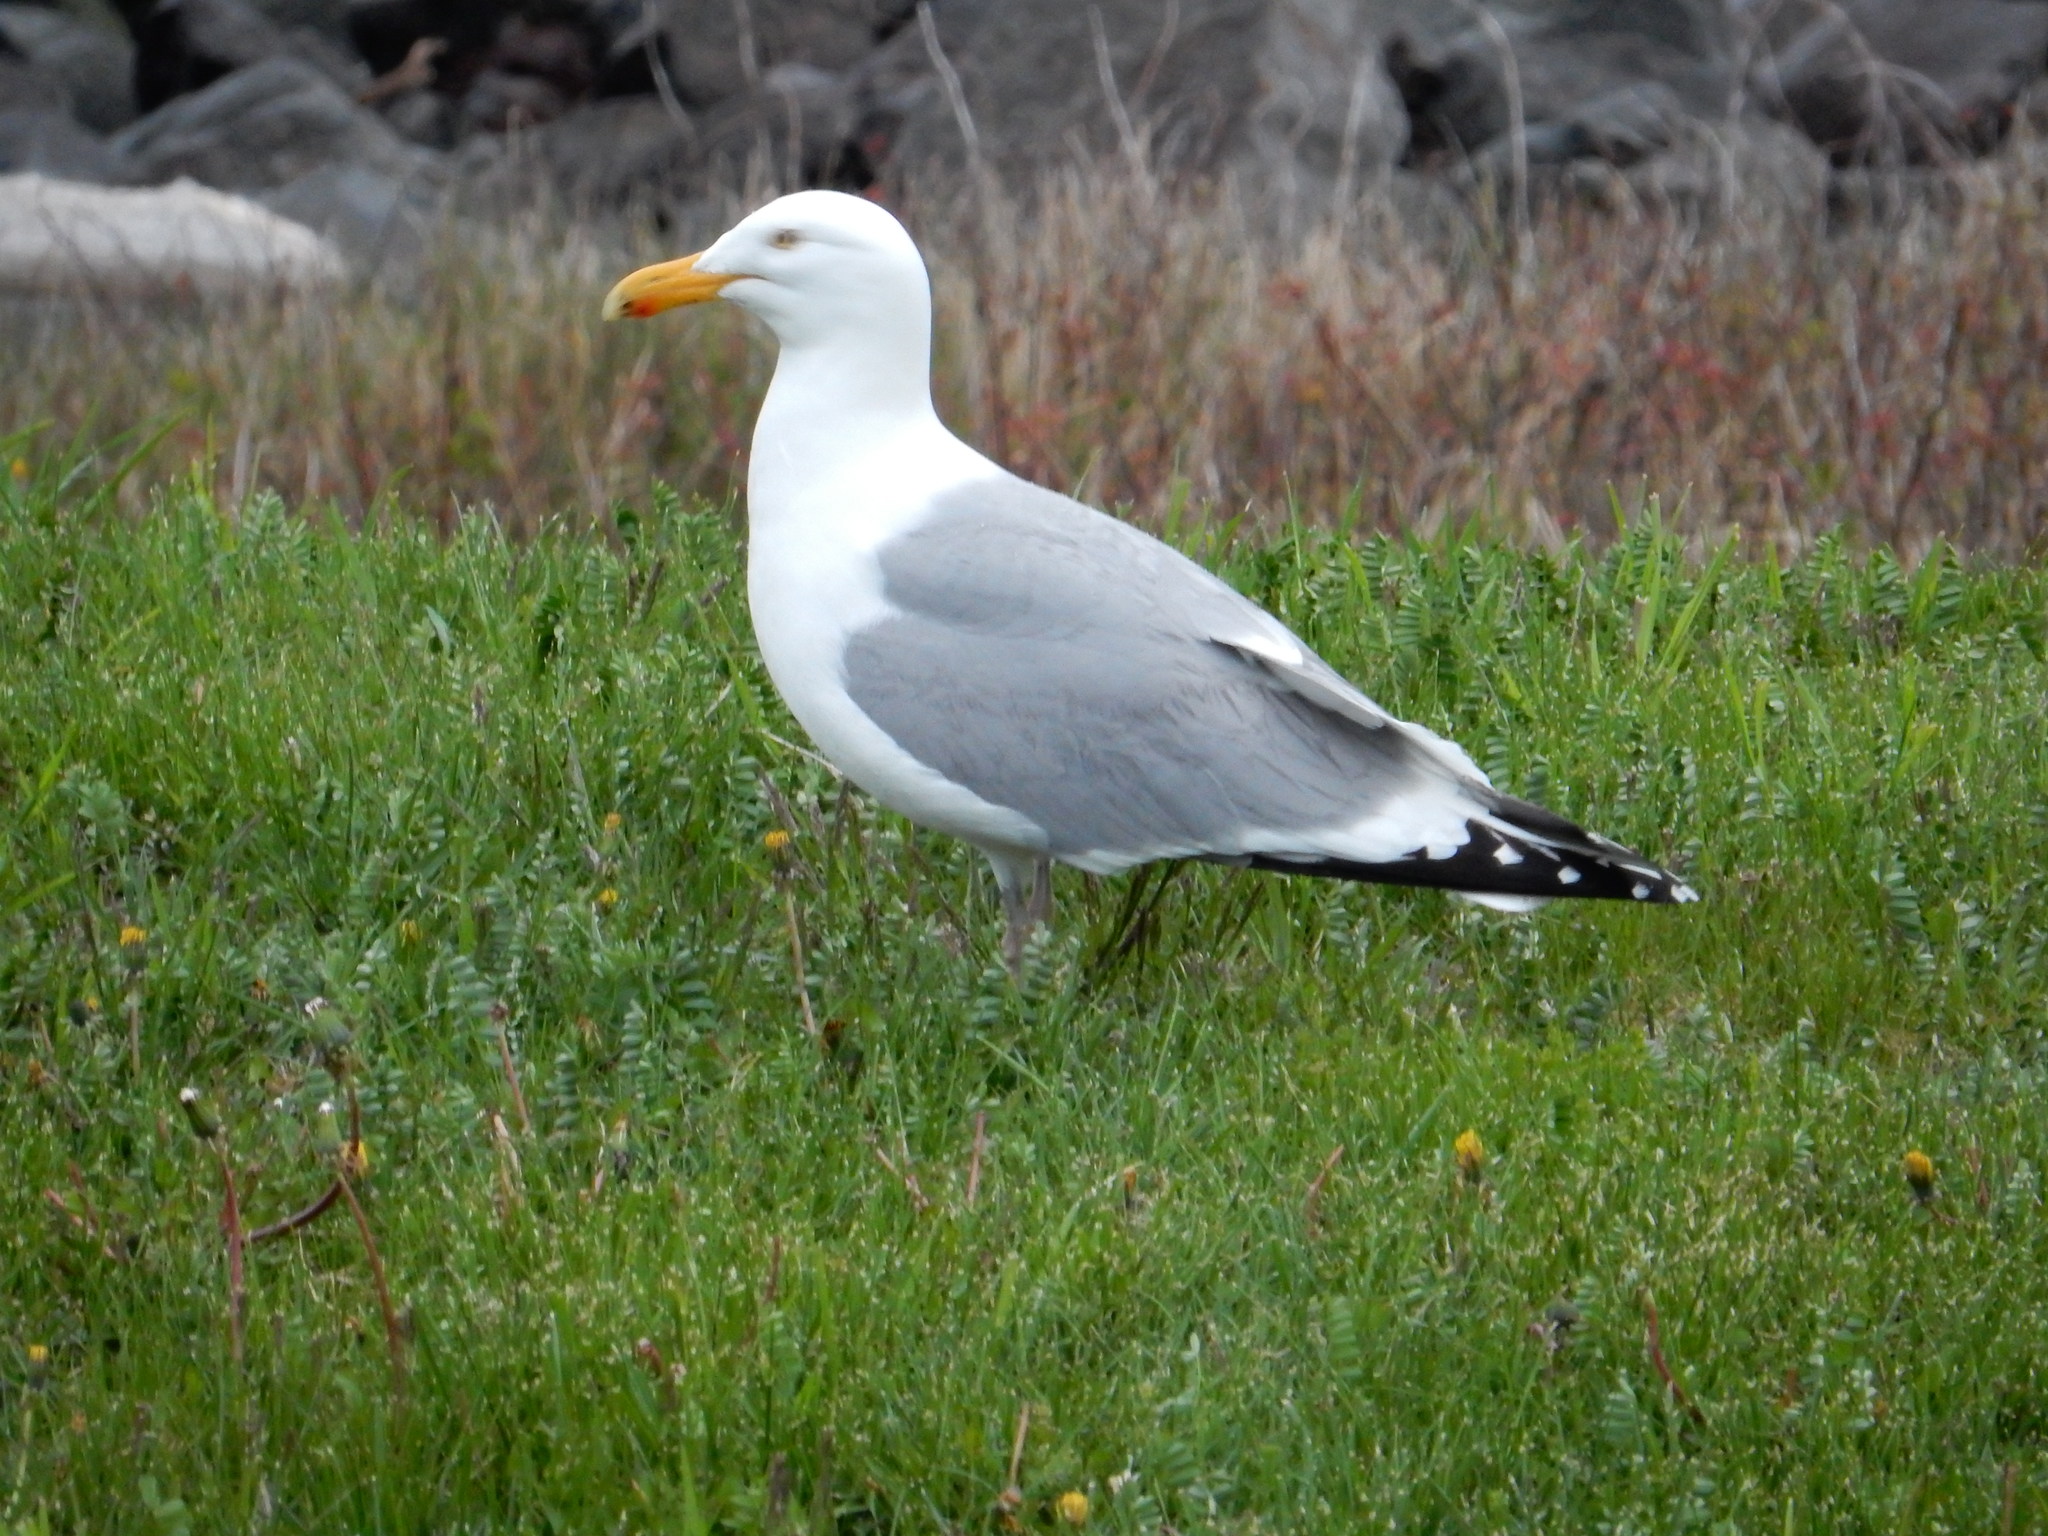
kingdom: Animalia
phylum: Chordata
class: Aves
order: Charadriiformes
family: Laridae
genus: Larus
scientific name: Larus argentatus
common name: Herring gull
